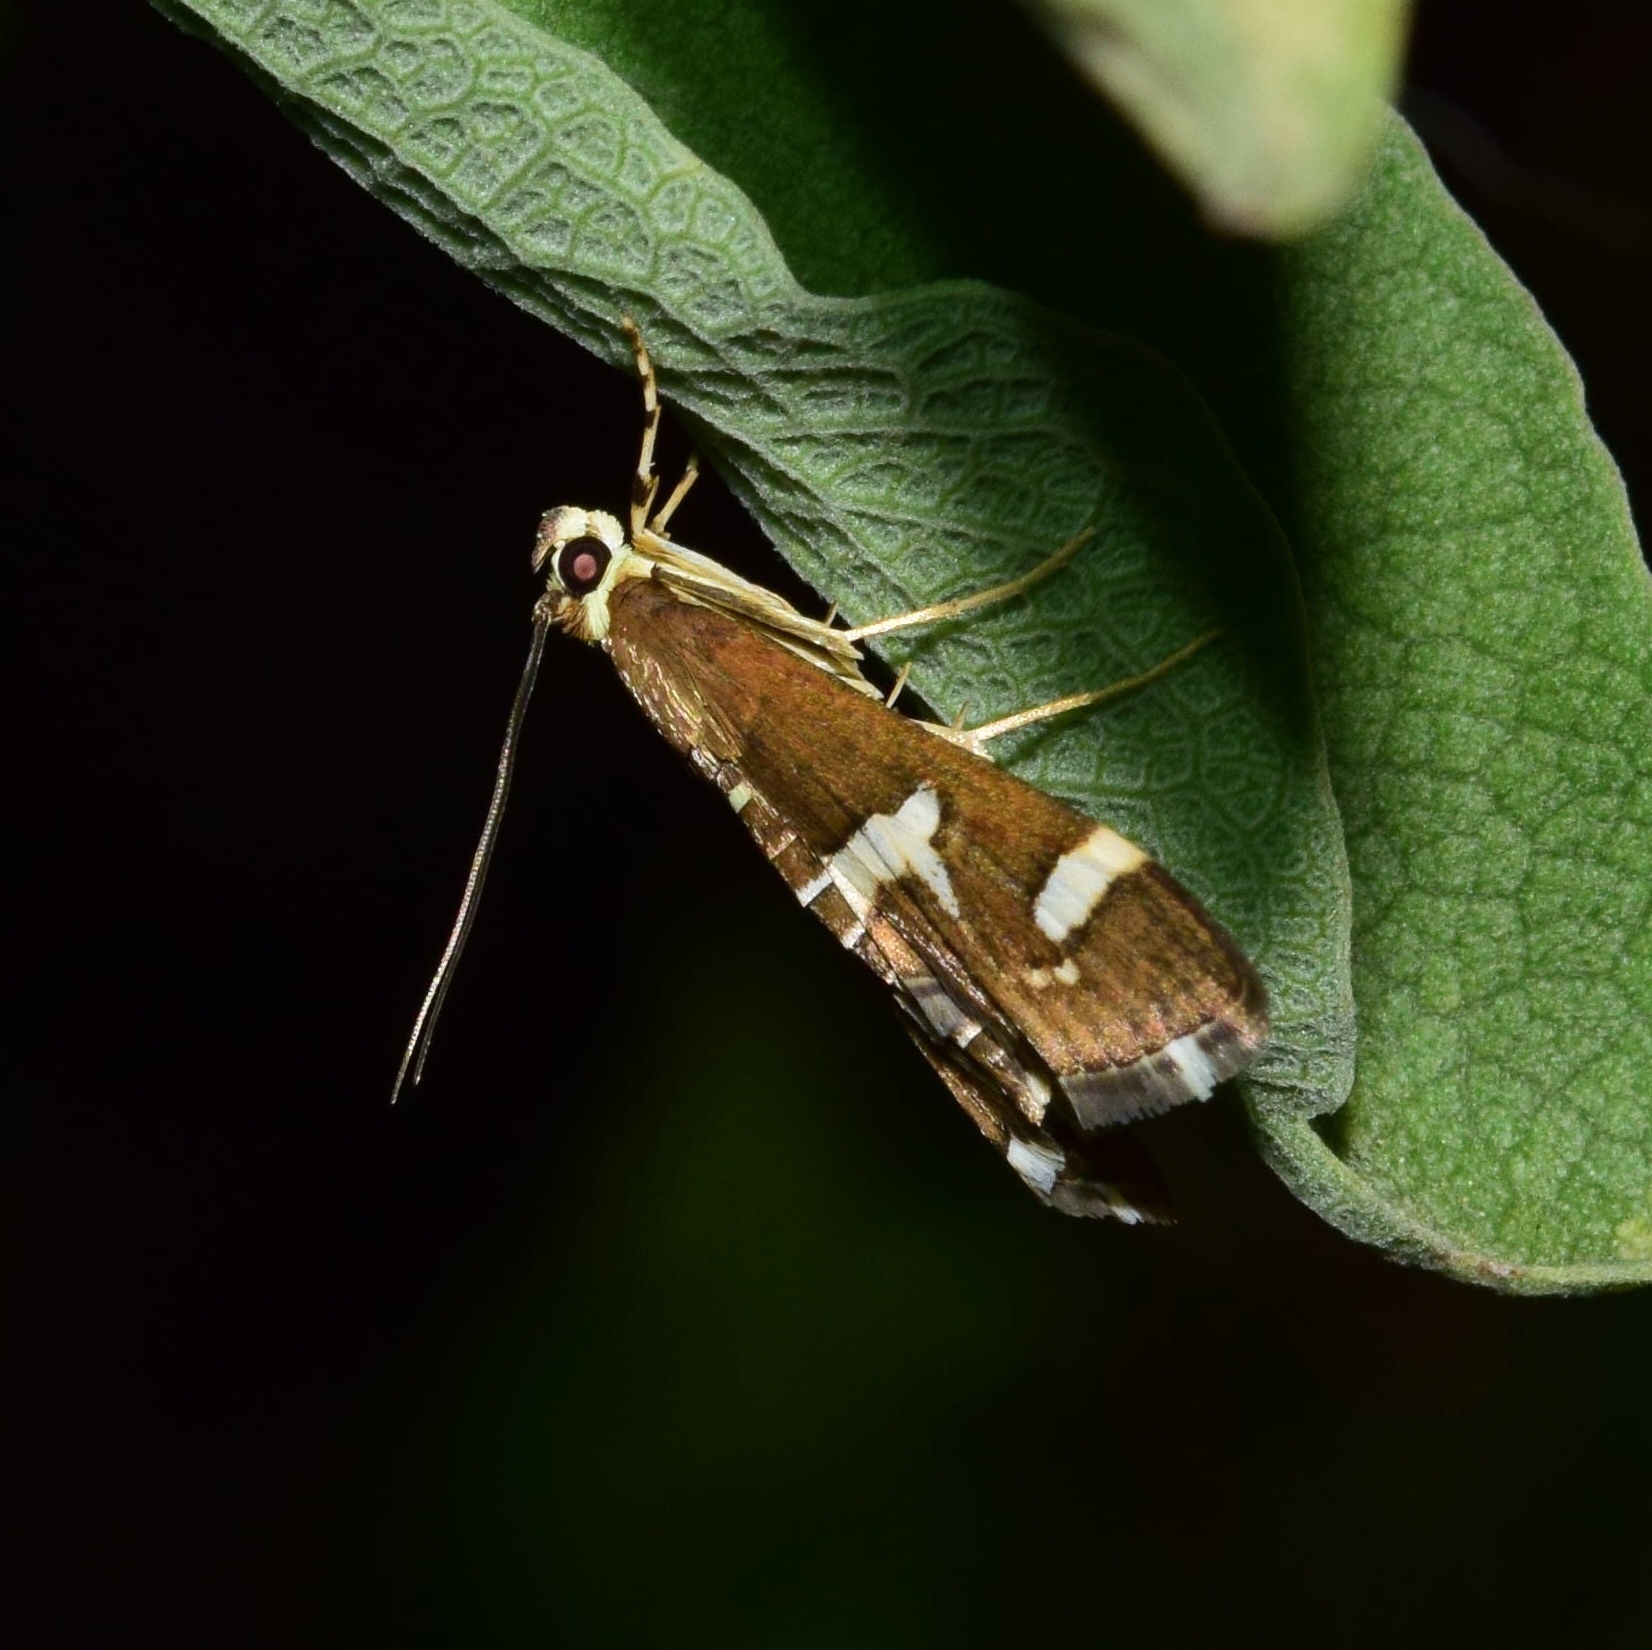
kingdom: Animalia
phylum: Arthropoda
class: Insecta
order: Lepidoptera
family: Crambidae
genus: Spoladea
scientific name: Spoladea recurvalis
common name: Beet webworm moth
